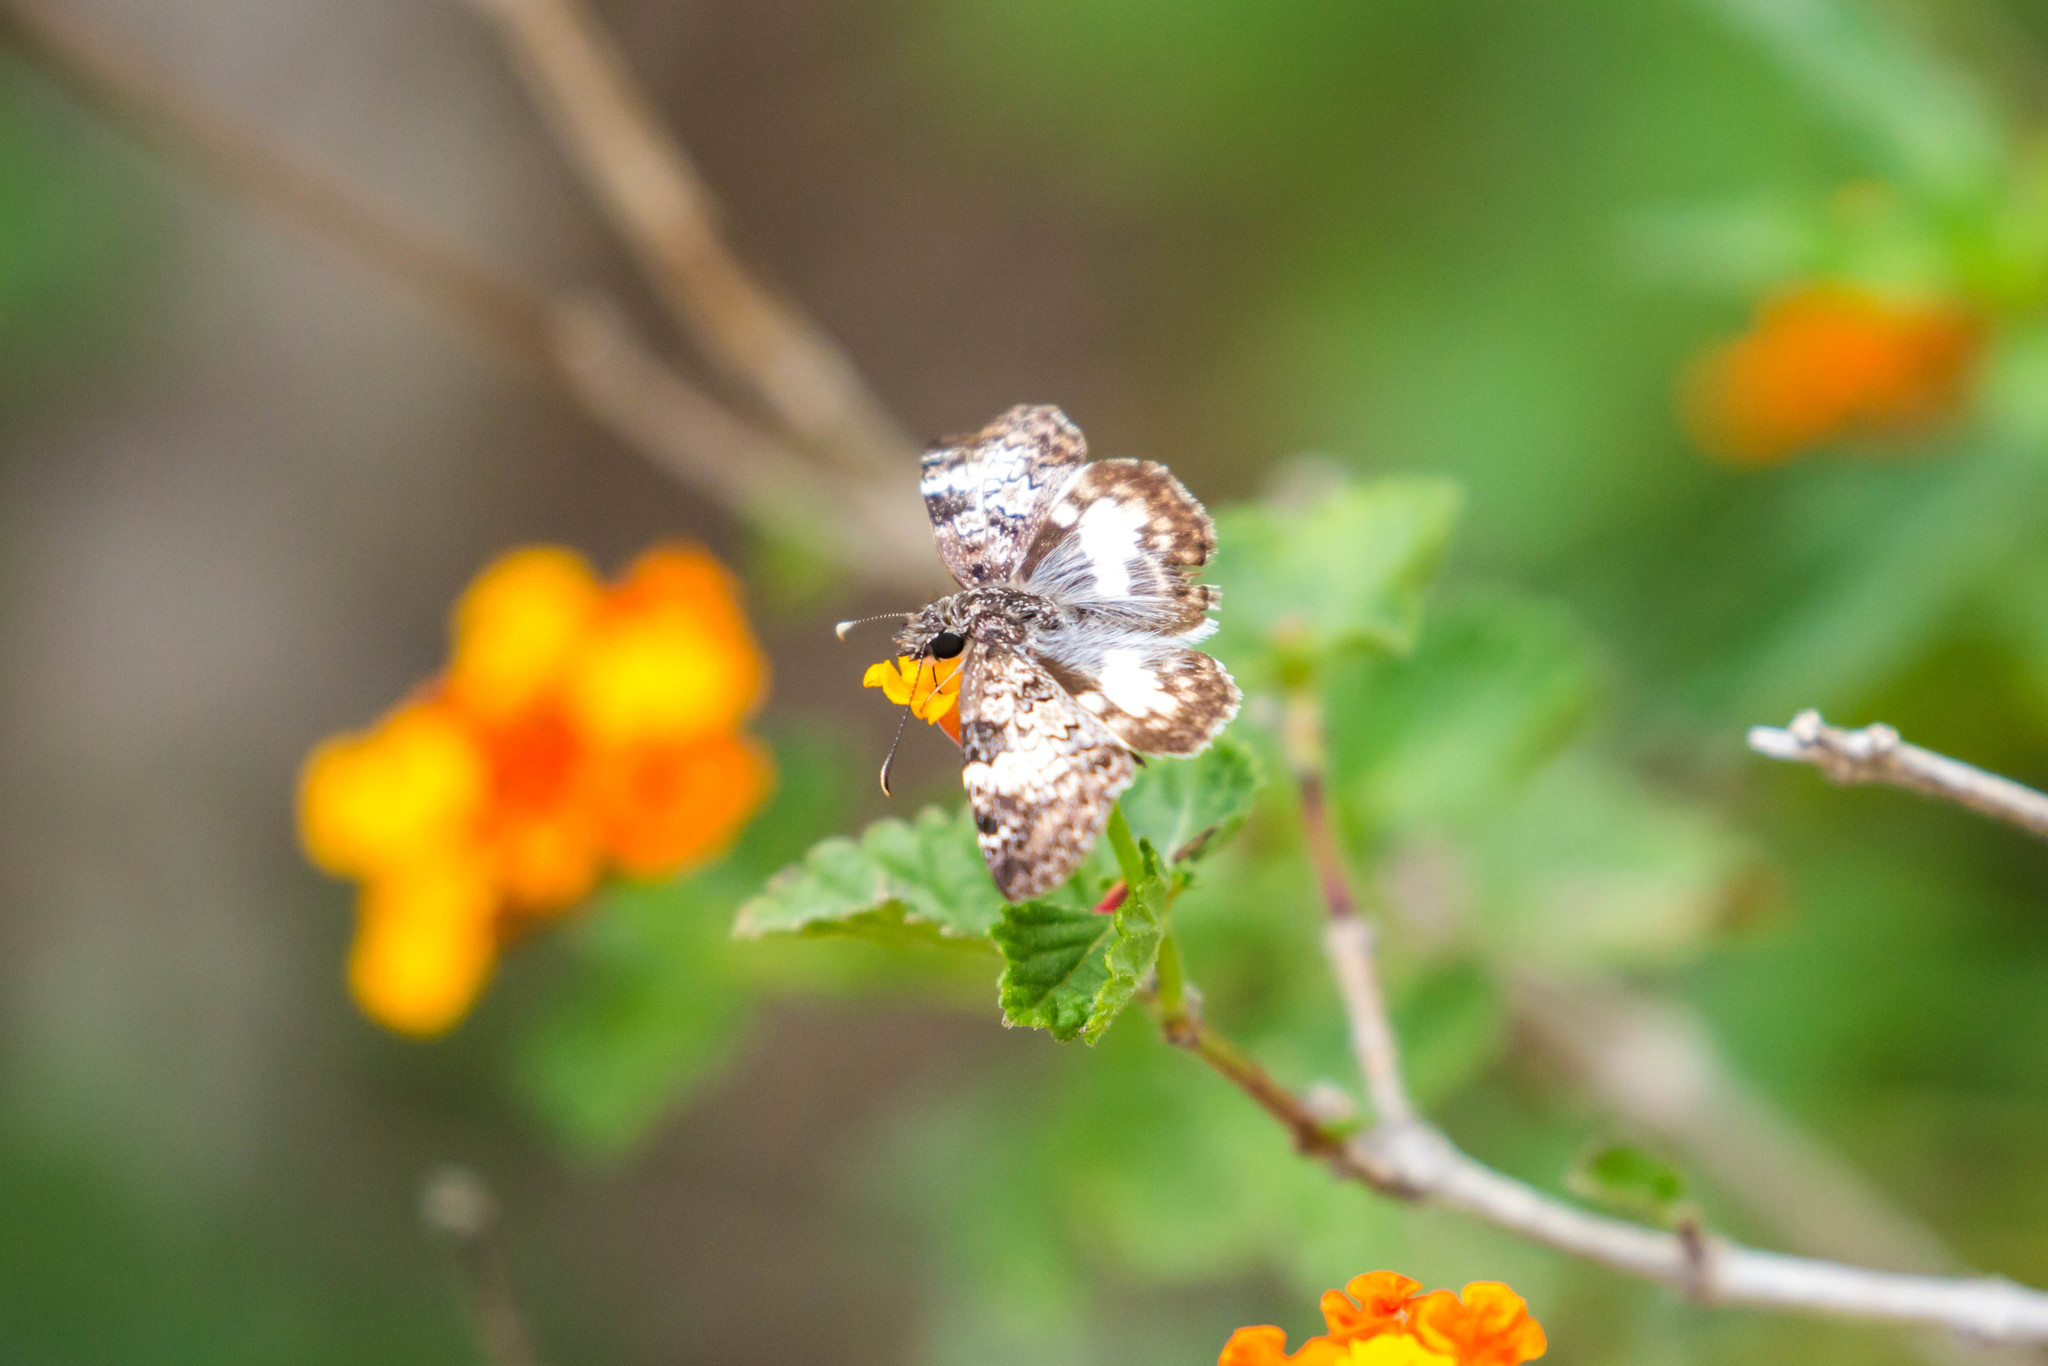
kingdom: Animalia
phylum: Arthropoda
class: Insecta
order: Lepidoptera
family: Hesperiidae
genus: Chiothion
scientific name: Chiothion georgina
